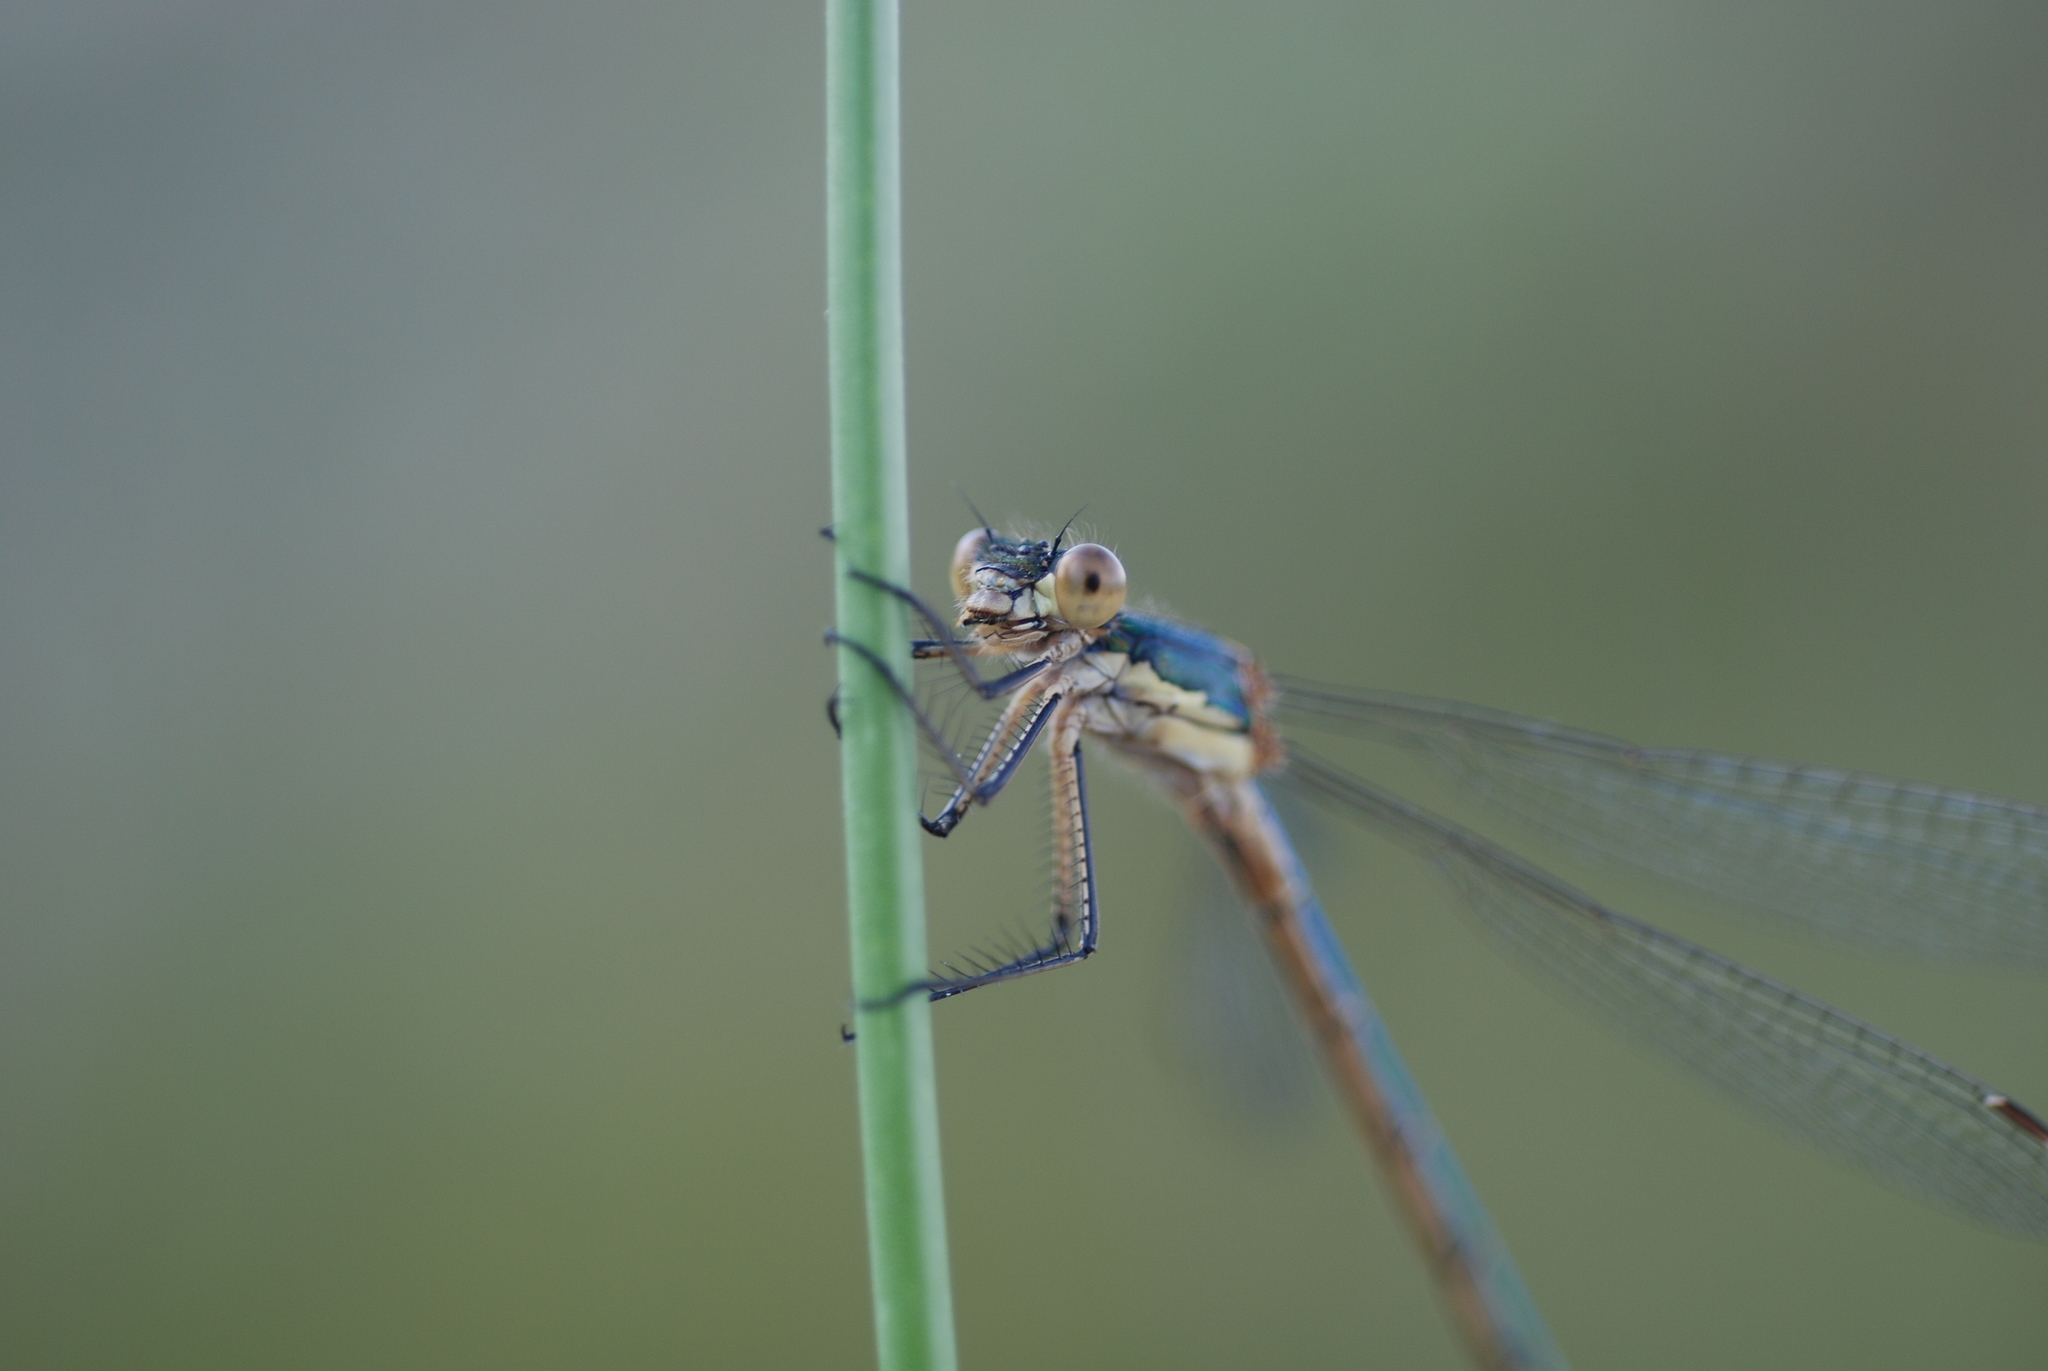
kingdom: Animalia
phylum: Arthropoda
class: Insecta
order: Odonata
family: Lestidae
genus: Lestes
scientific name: Lestes dryas
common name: Scarce emerald damselfly
